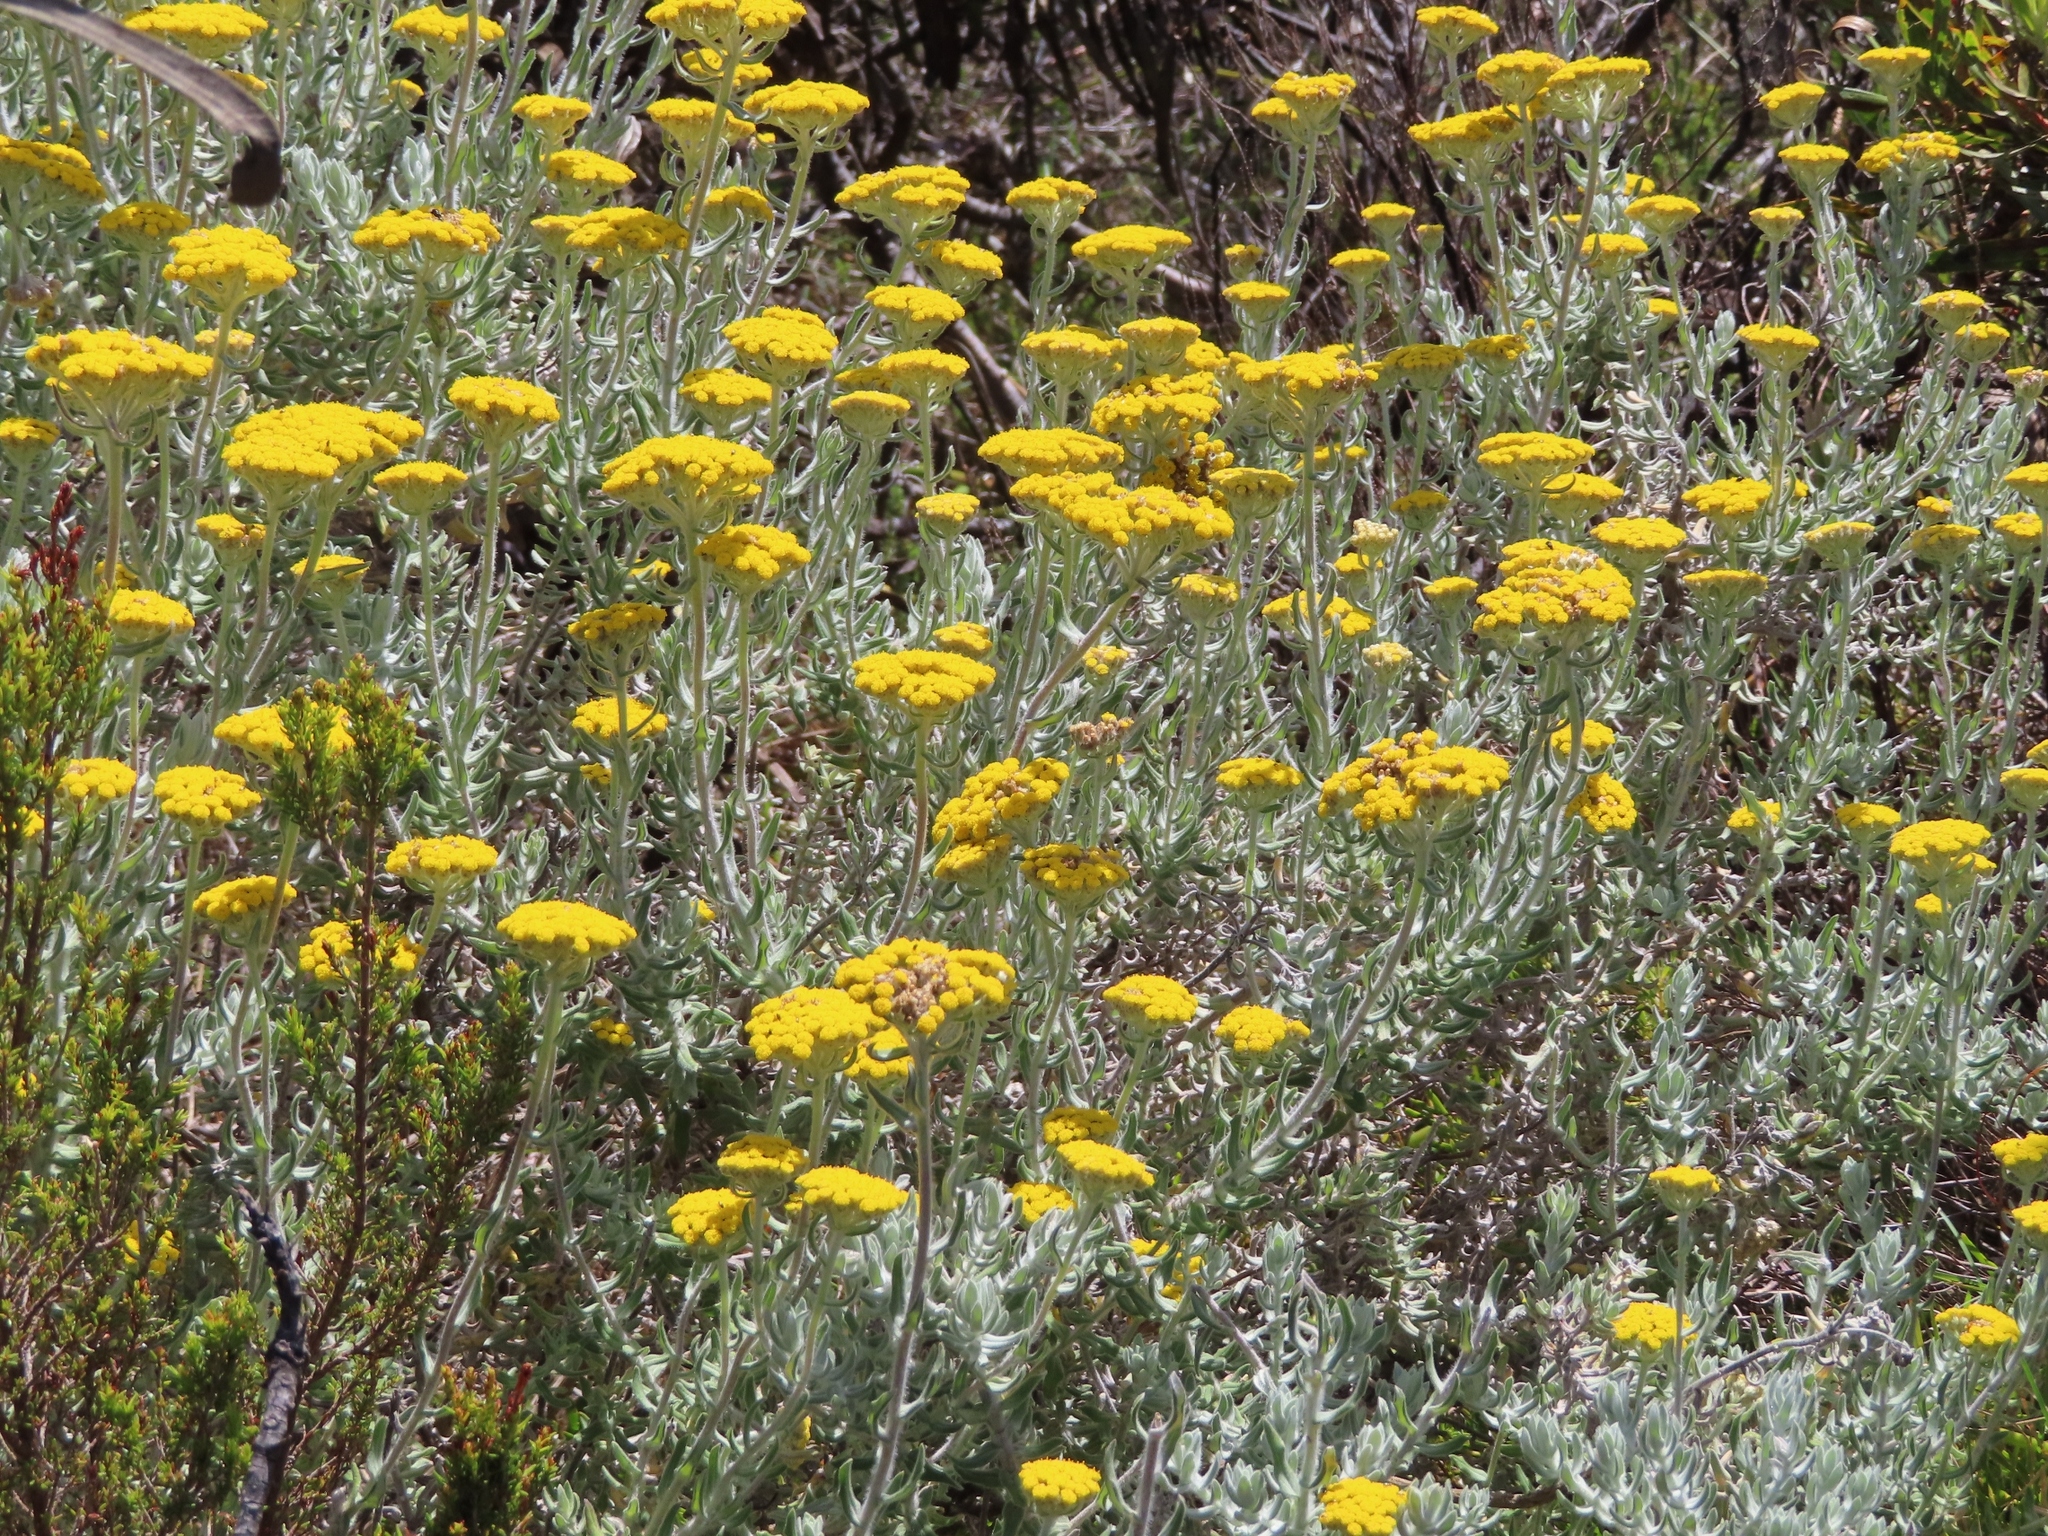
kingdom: Plantae
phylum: Tracheophyta
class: Magnoliopsida
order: Asterales
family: Asteraceae
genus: Helichrysum
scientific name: Helichrysum dasyanthum
